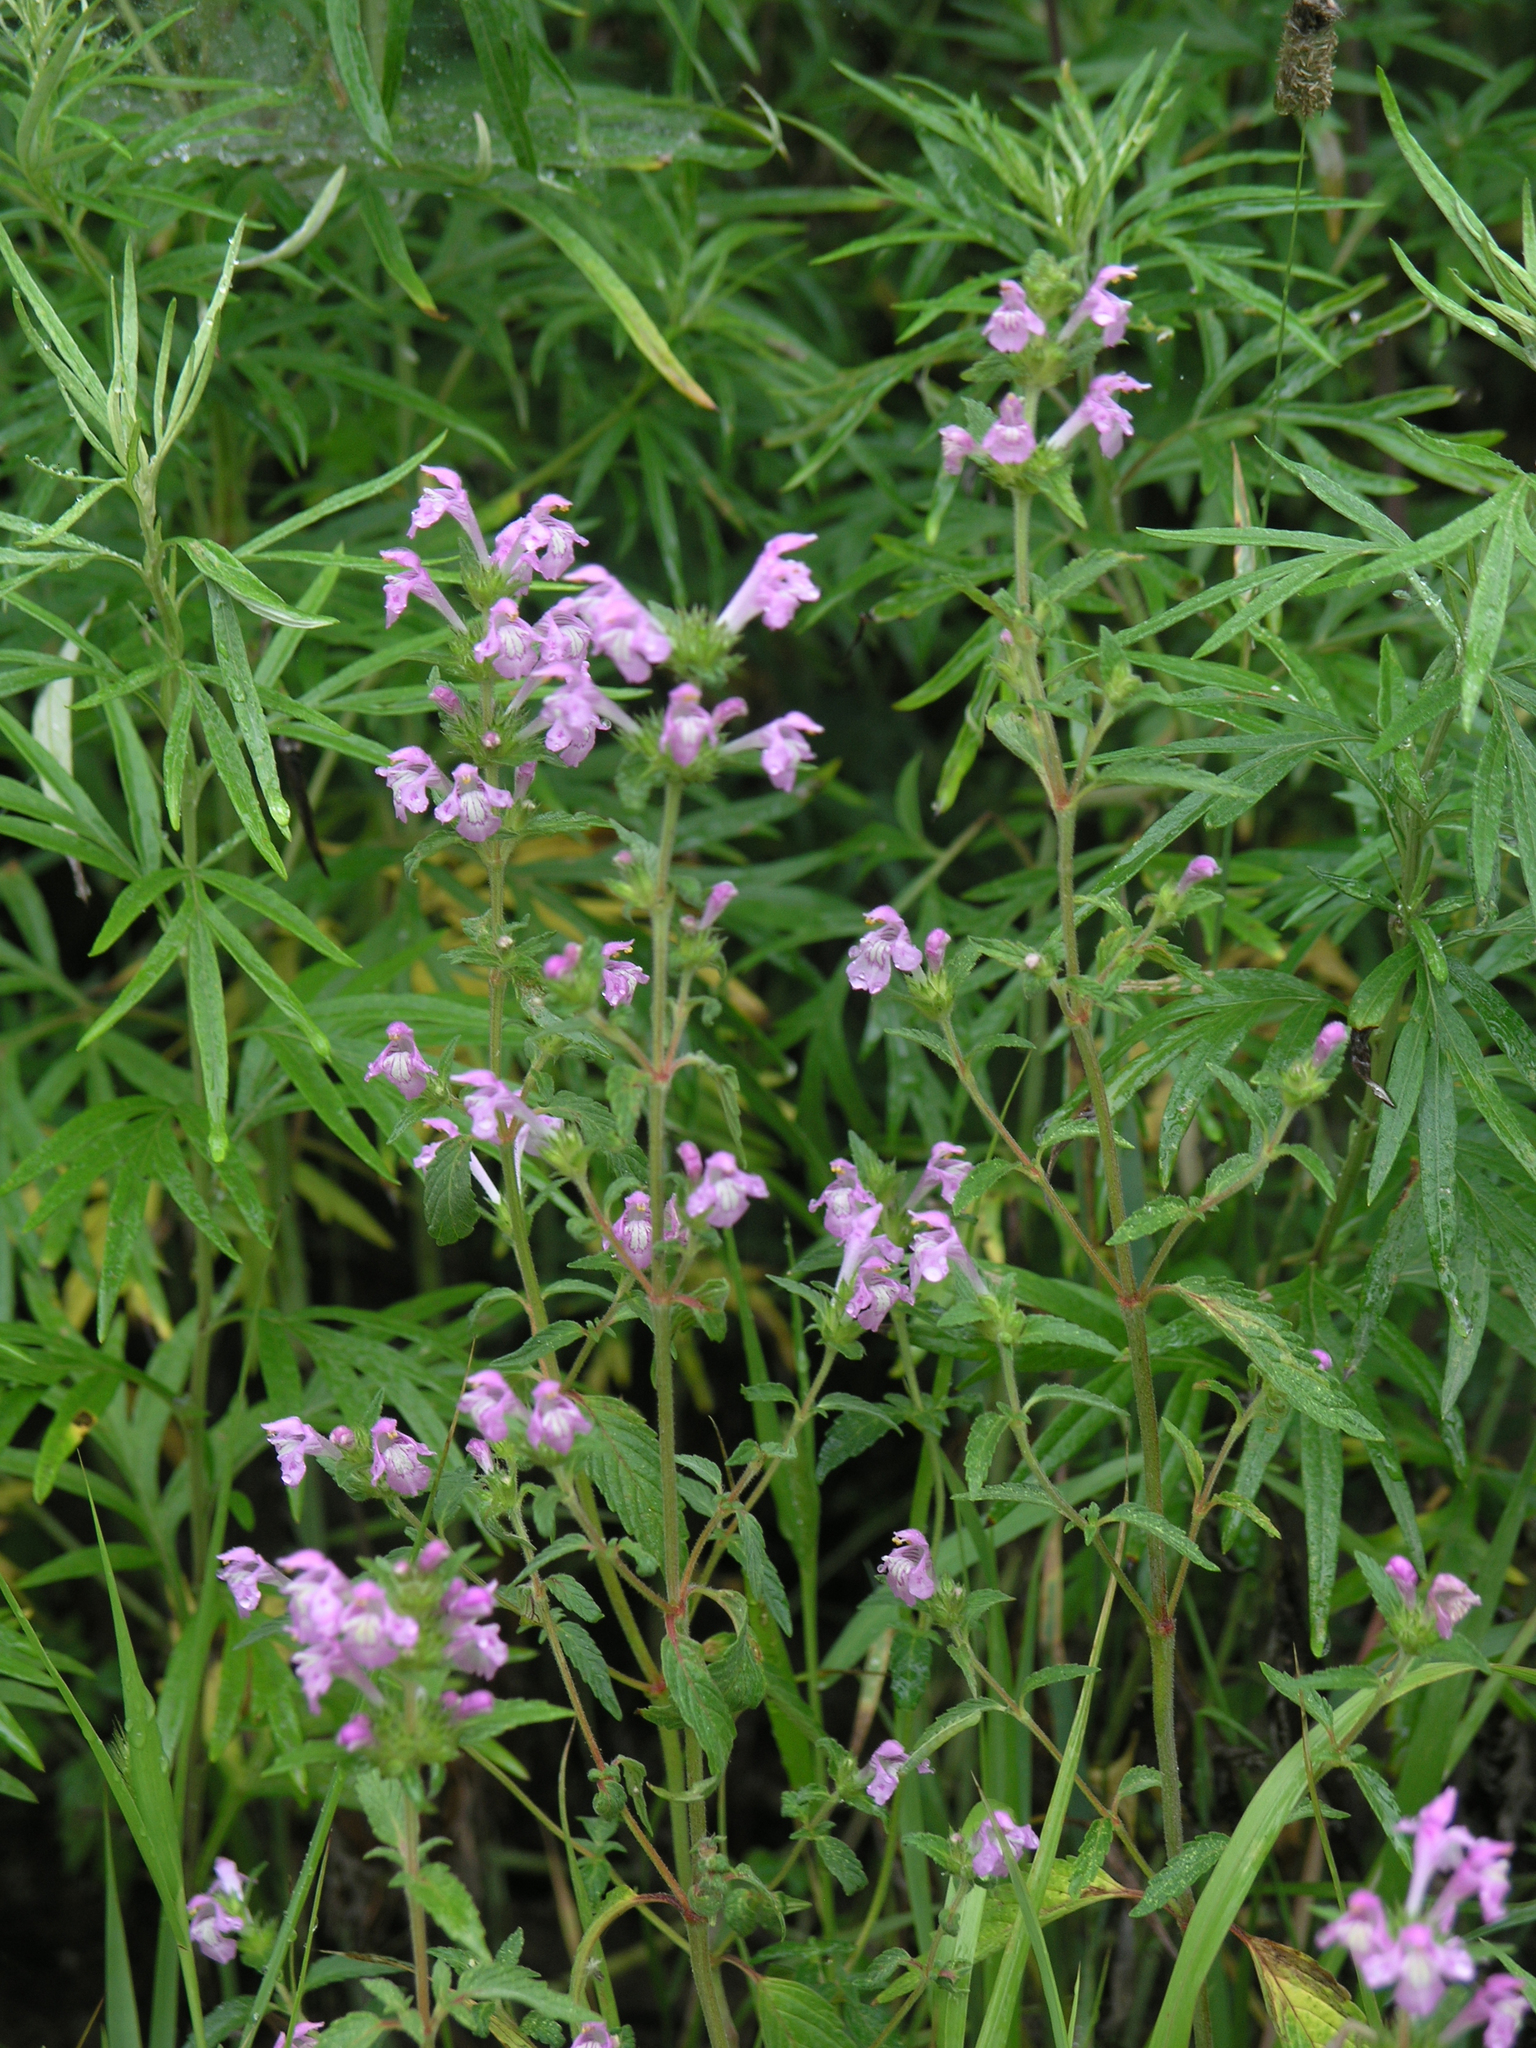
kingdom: Plantae
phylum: Tracheophyta
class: Magnoliopsida
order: Lamiales
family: Lamiaceae
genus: Galeopsis
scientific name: Galeopsis ladanum
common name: Broad-leaved hemp-nettle
